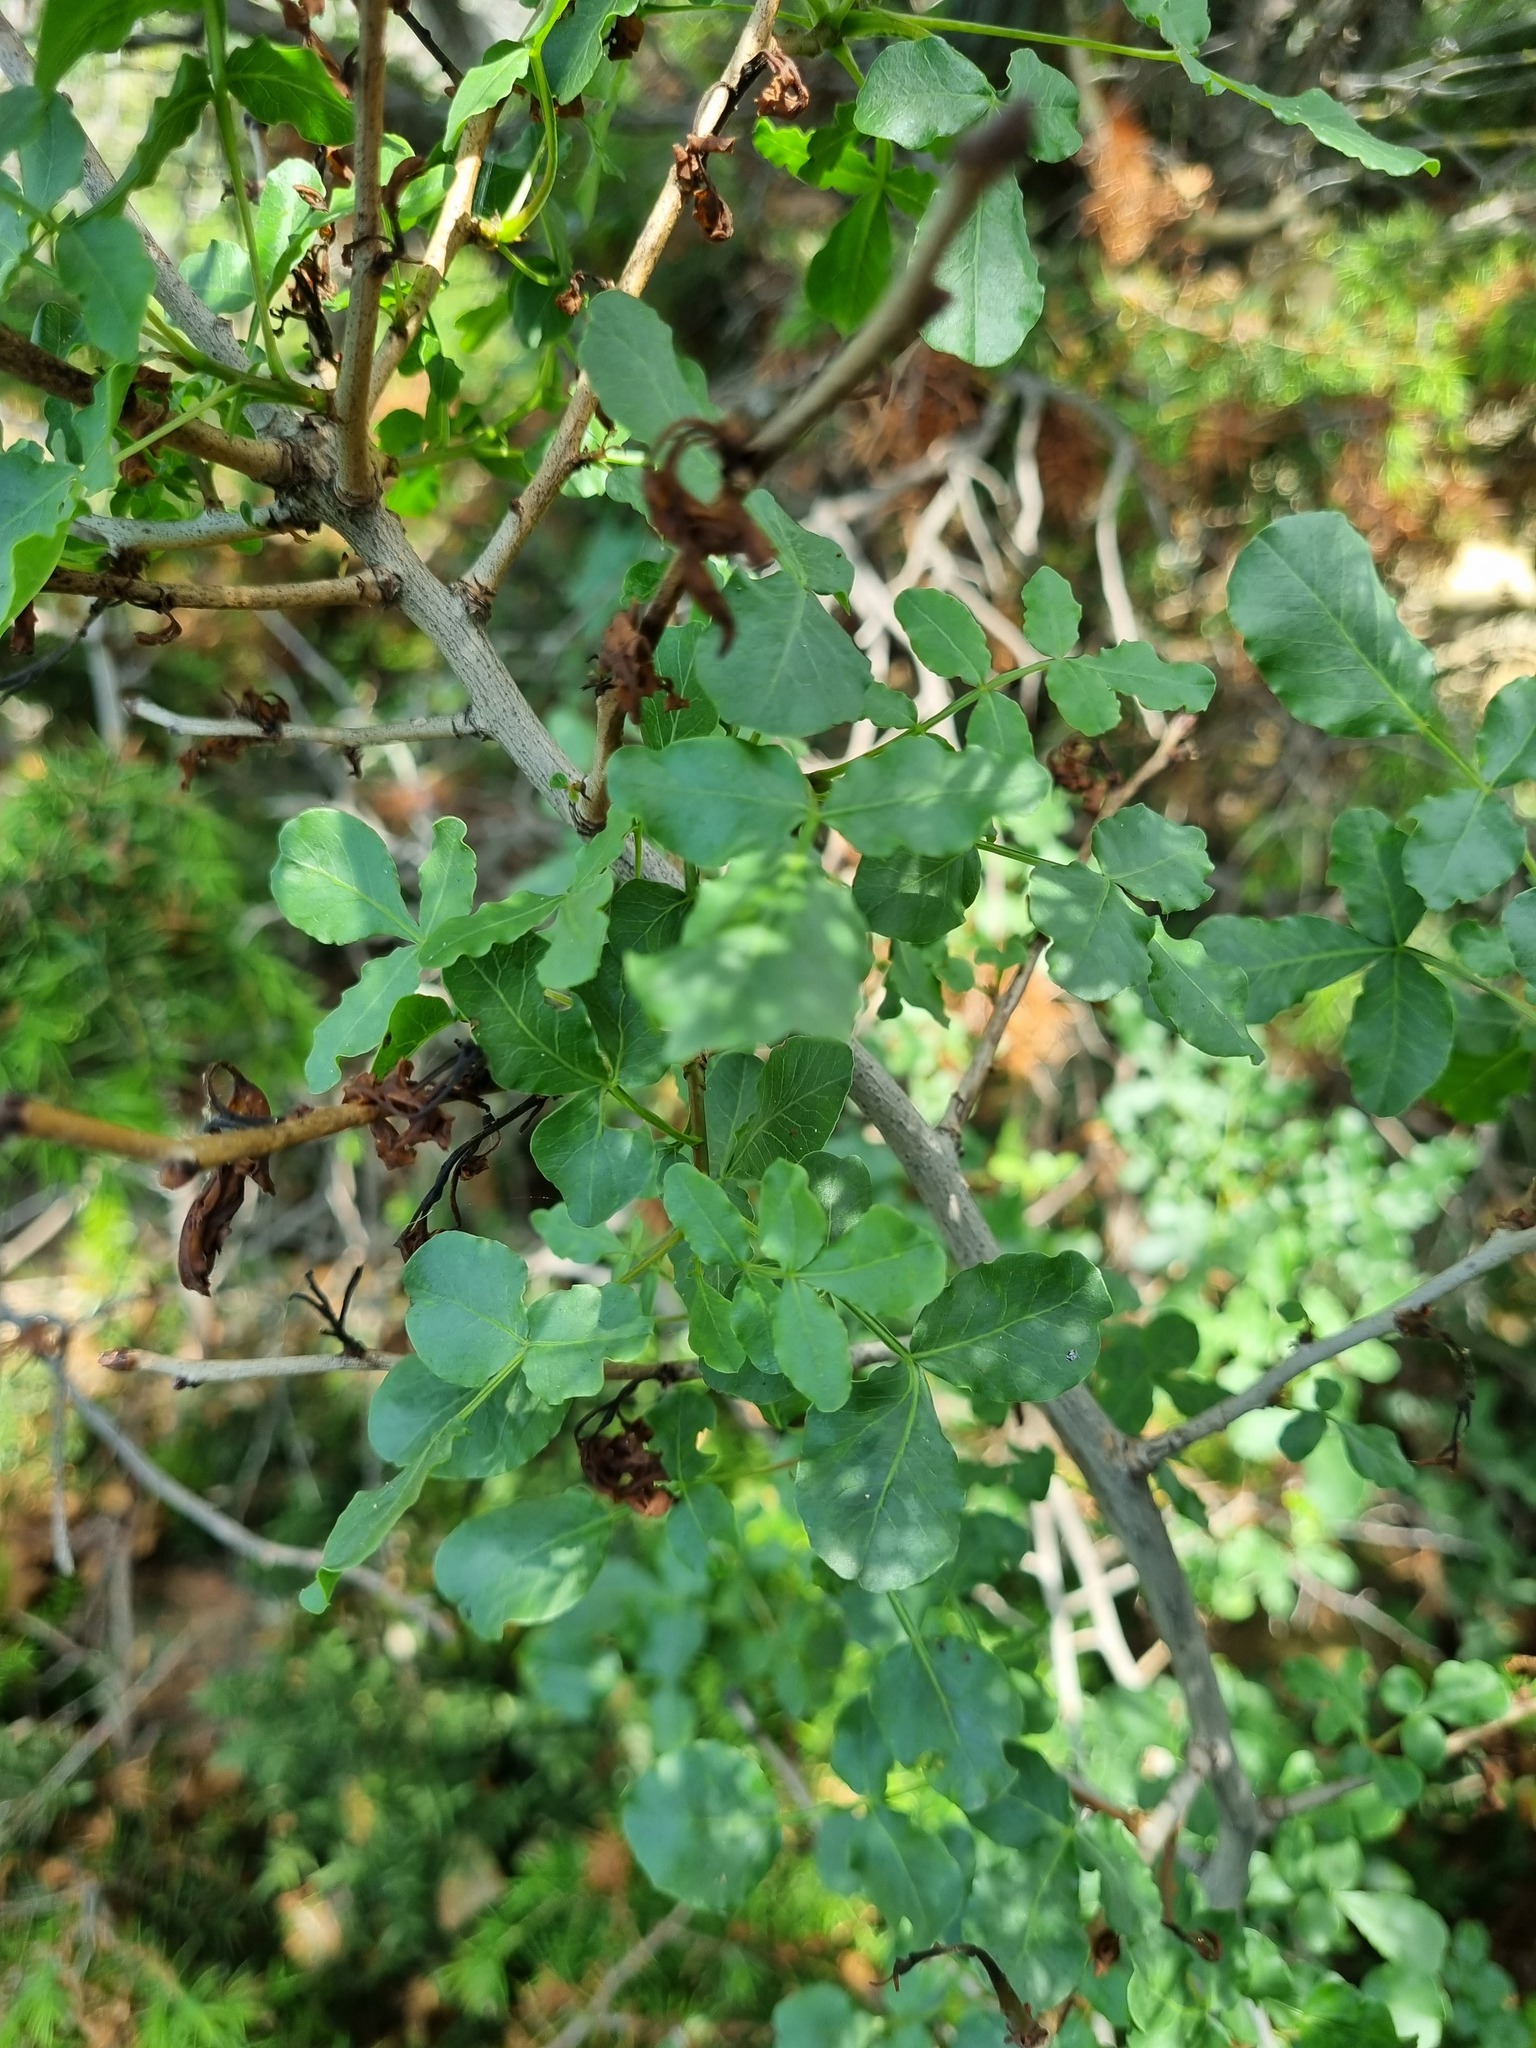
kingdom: Plantae
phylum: Tracheophyta
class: Magnoliopsida
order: Sapindales
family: Anacardiaceae
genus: Pistacia
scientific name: Pistacia atlantica
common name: Mt. atlas mastic tree
